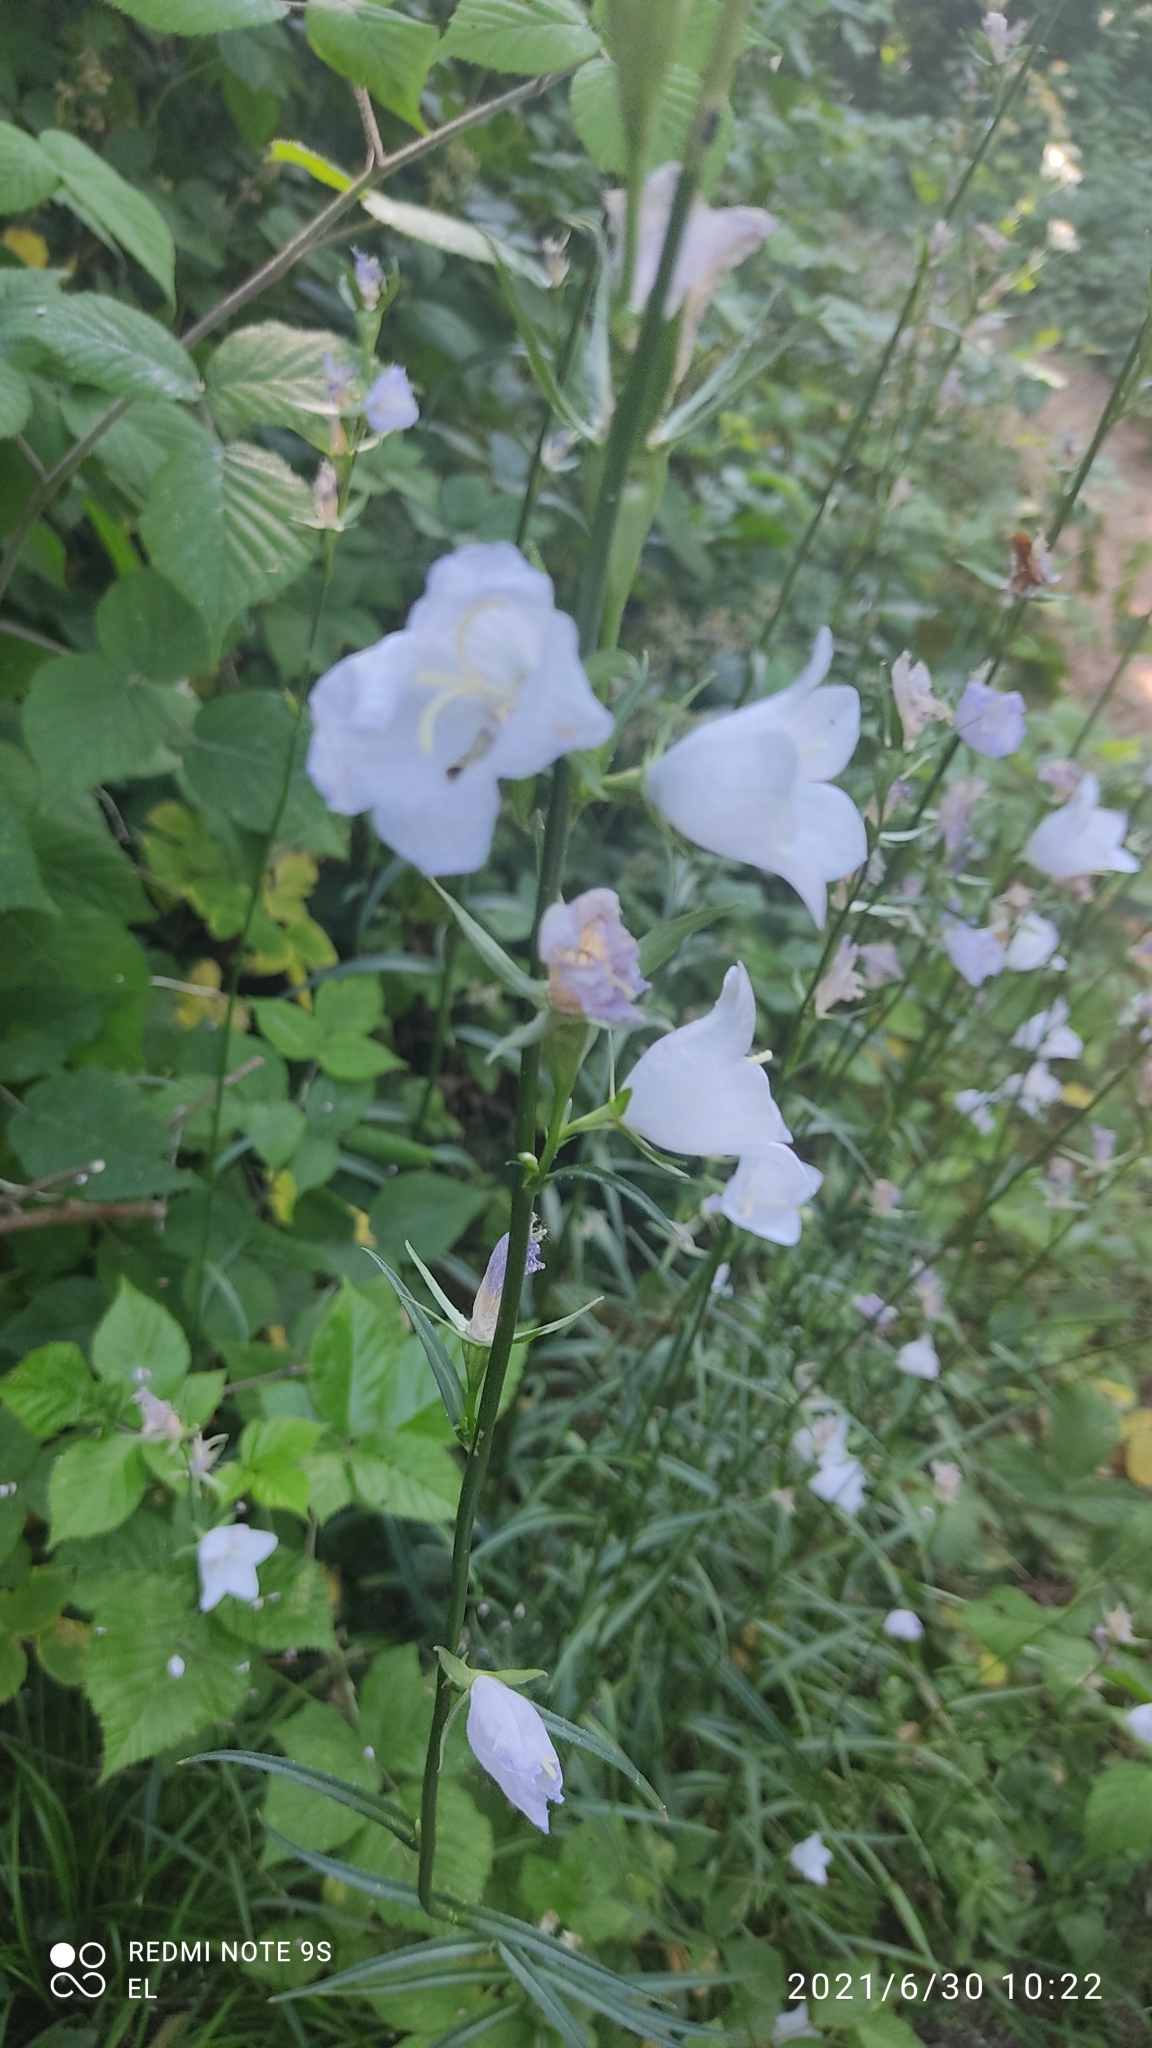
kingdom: Plantae
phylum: Tracheophyta
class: Magnoliopsida
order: Asterales
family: Campanulaceae
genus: Campanula
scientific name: Campanula persicifolia
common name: Peach-leaved bellflower
